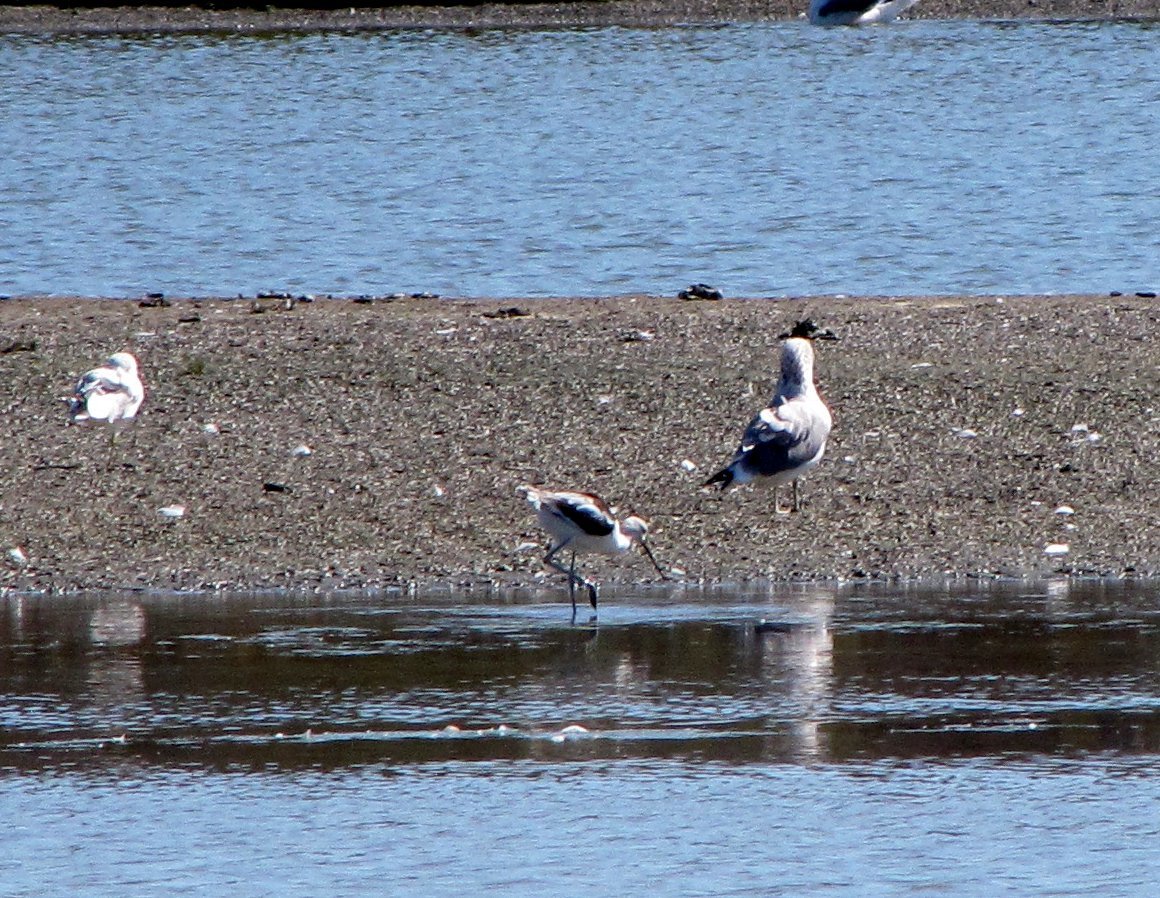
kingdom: Animalia
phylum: Chordata
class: Aves
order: Charadriiformes
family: Recurvirostridae
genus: Recurvirostra
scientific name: Recurvirostra americana
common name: American avocet
